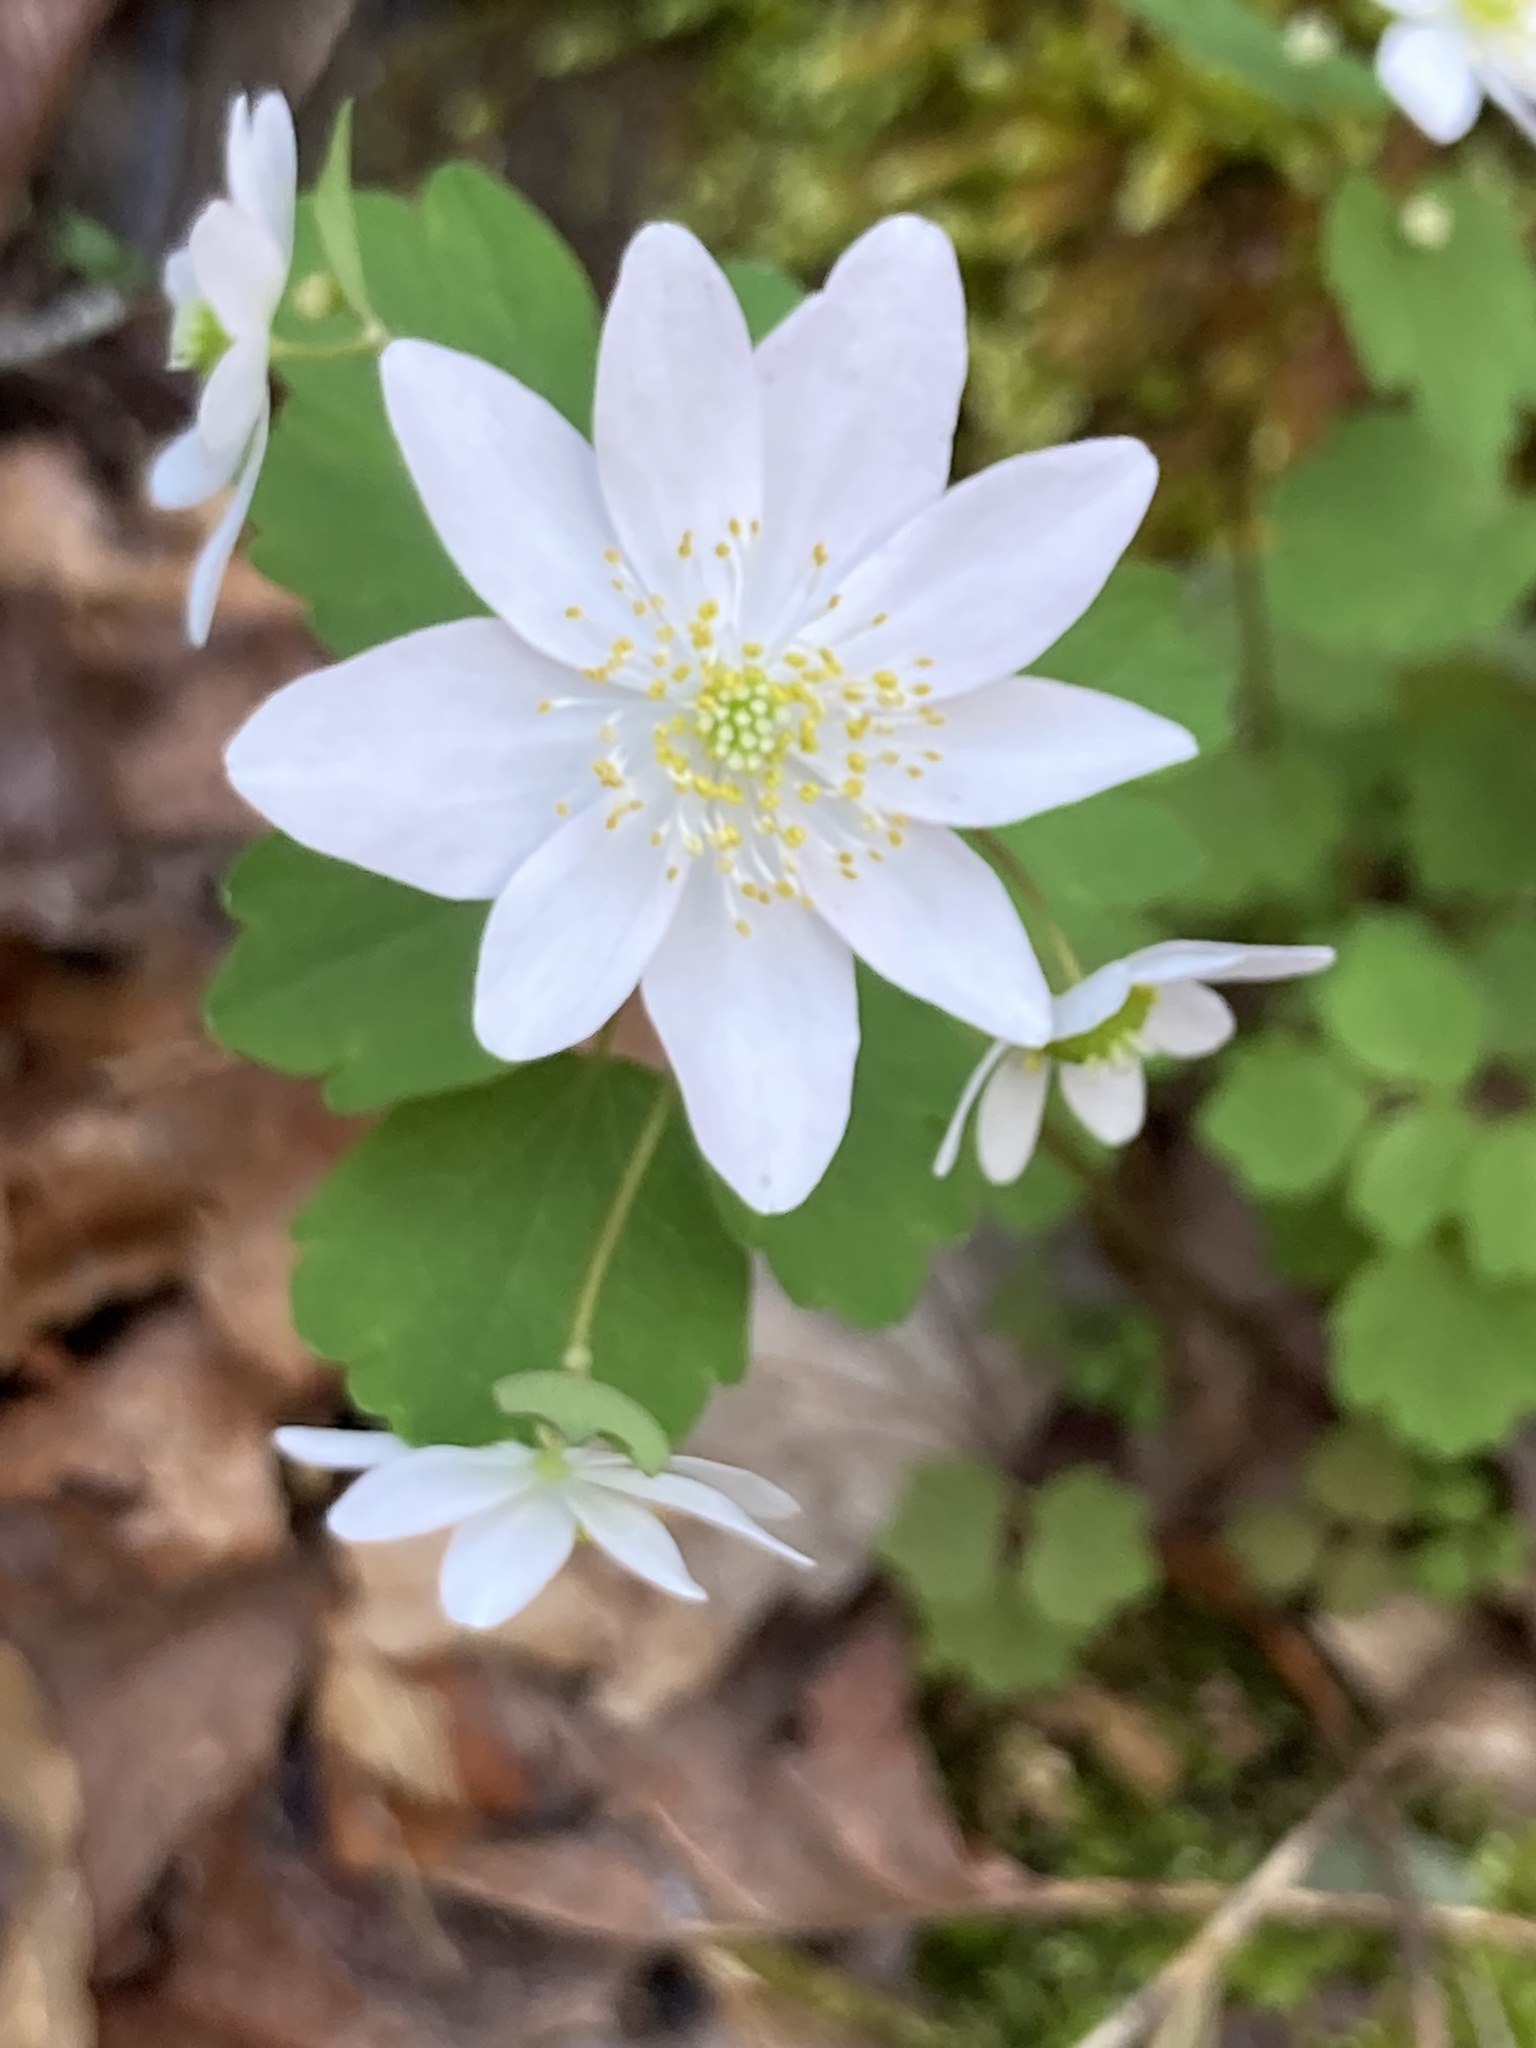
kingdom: Plantae
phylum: Tracheophyta
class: Magnoliopsida
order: Ranunculales
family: Ranunculaceae
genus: Thalictrum
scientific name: Thalictrum thalictroides
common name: Rue-anemone
